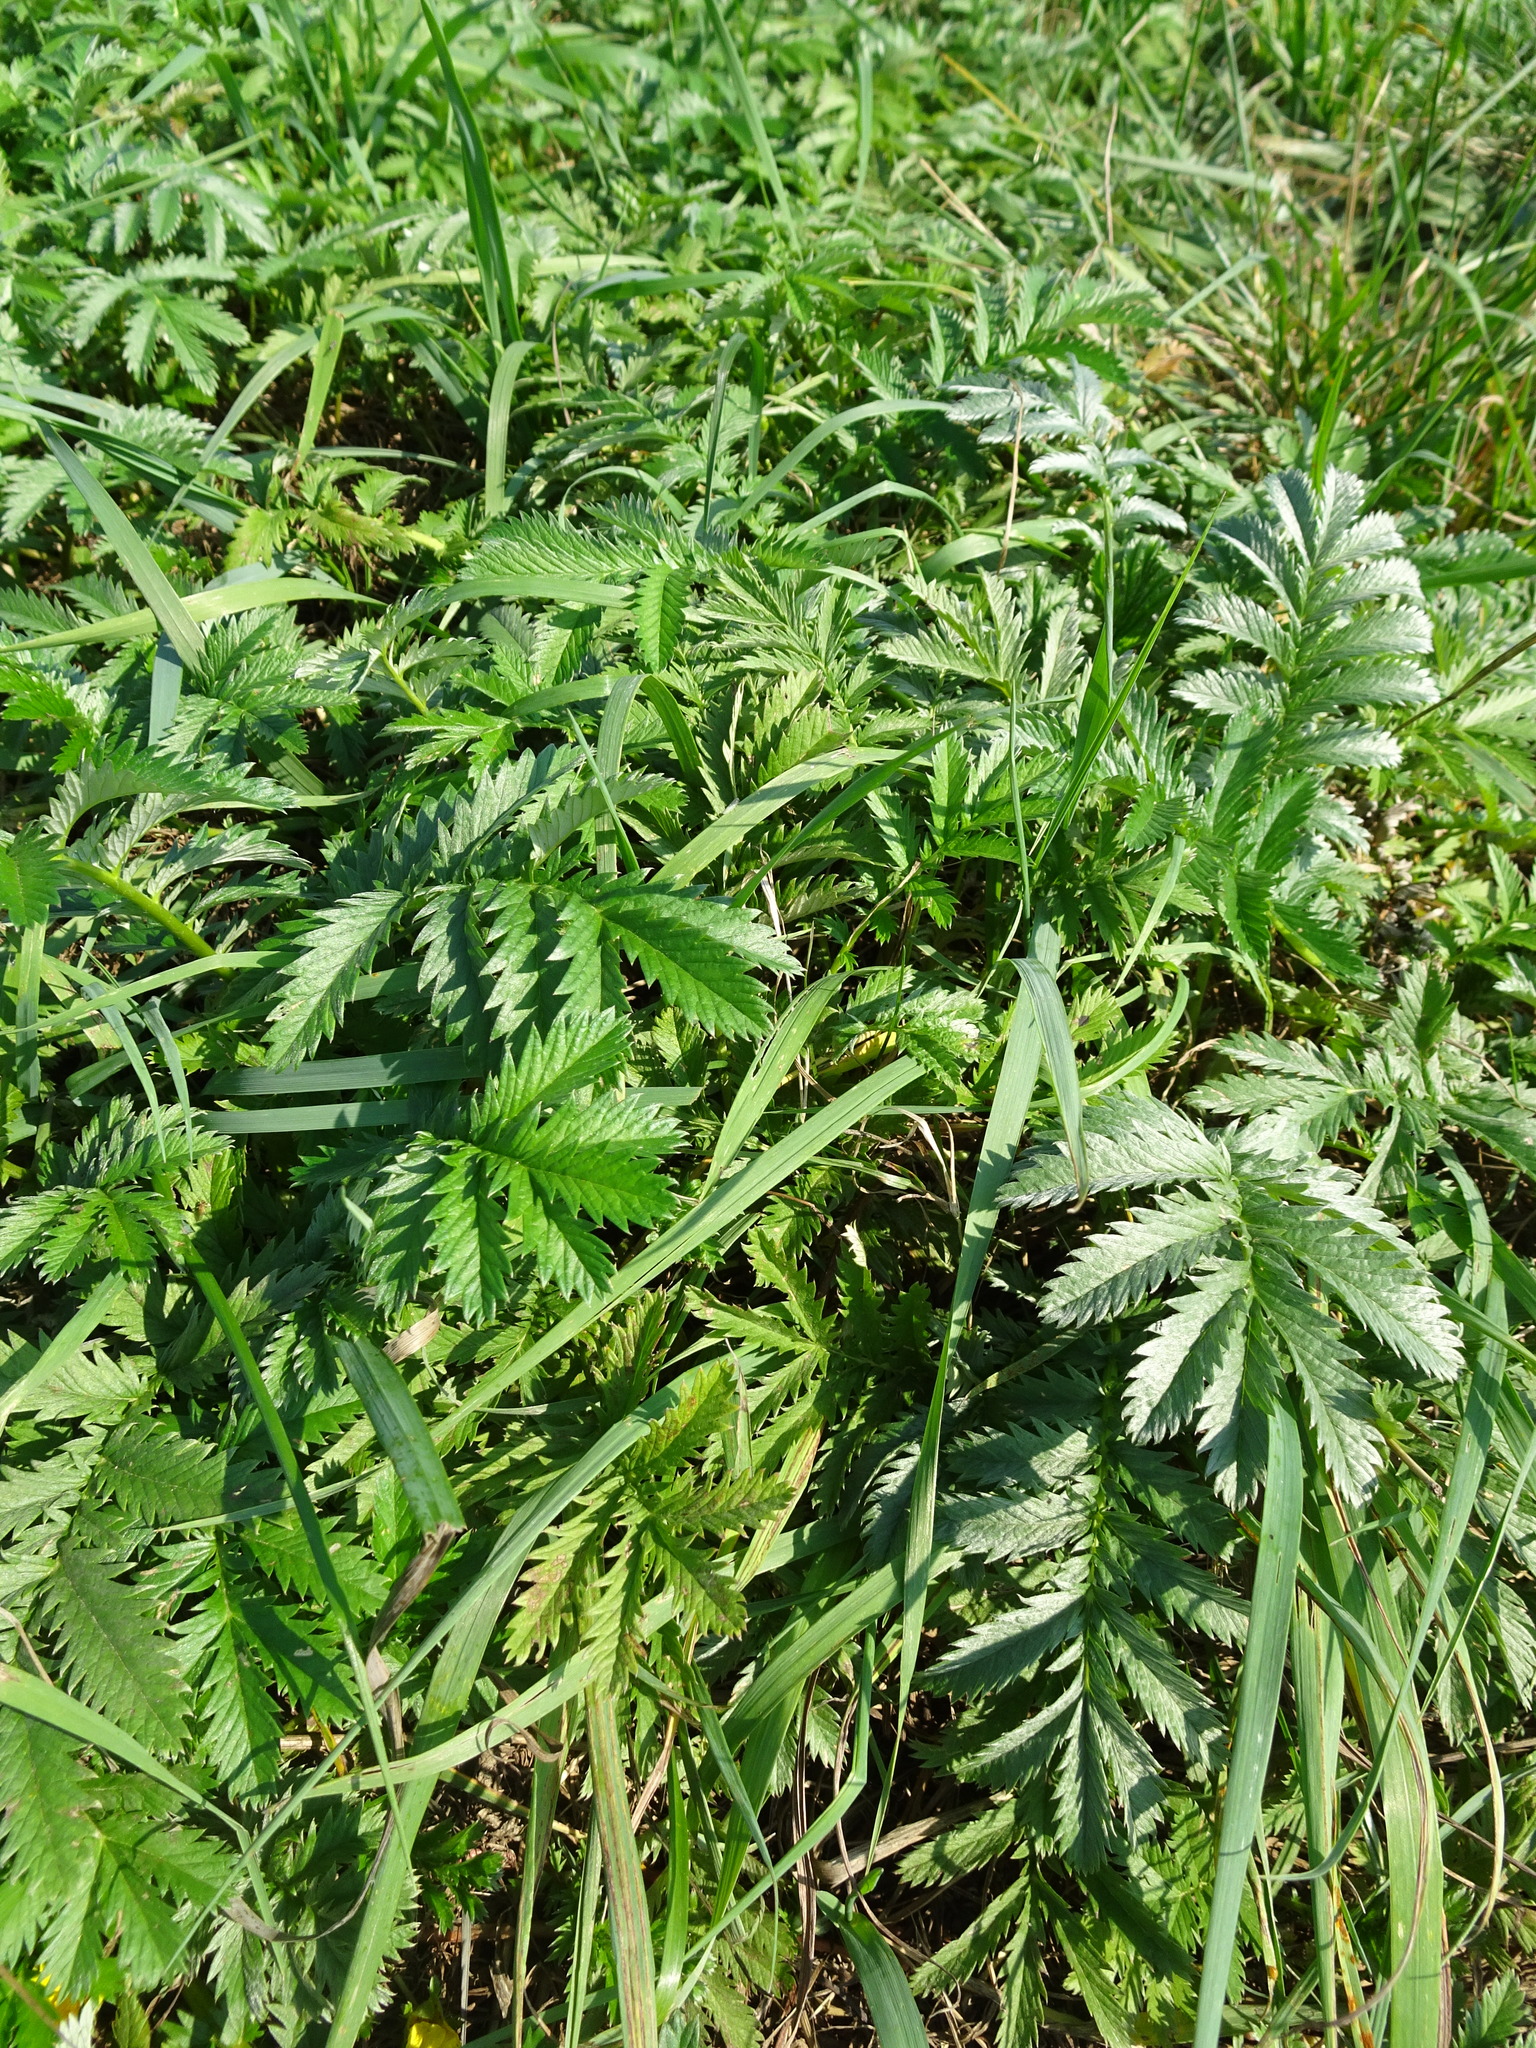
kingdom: Plantae
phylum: Tracheophyta
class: Magnoliopsida
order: Rosales
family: Rosaceae
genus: Argentina
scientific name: Argentina anserina
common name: Common silverweed
